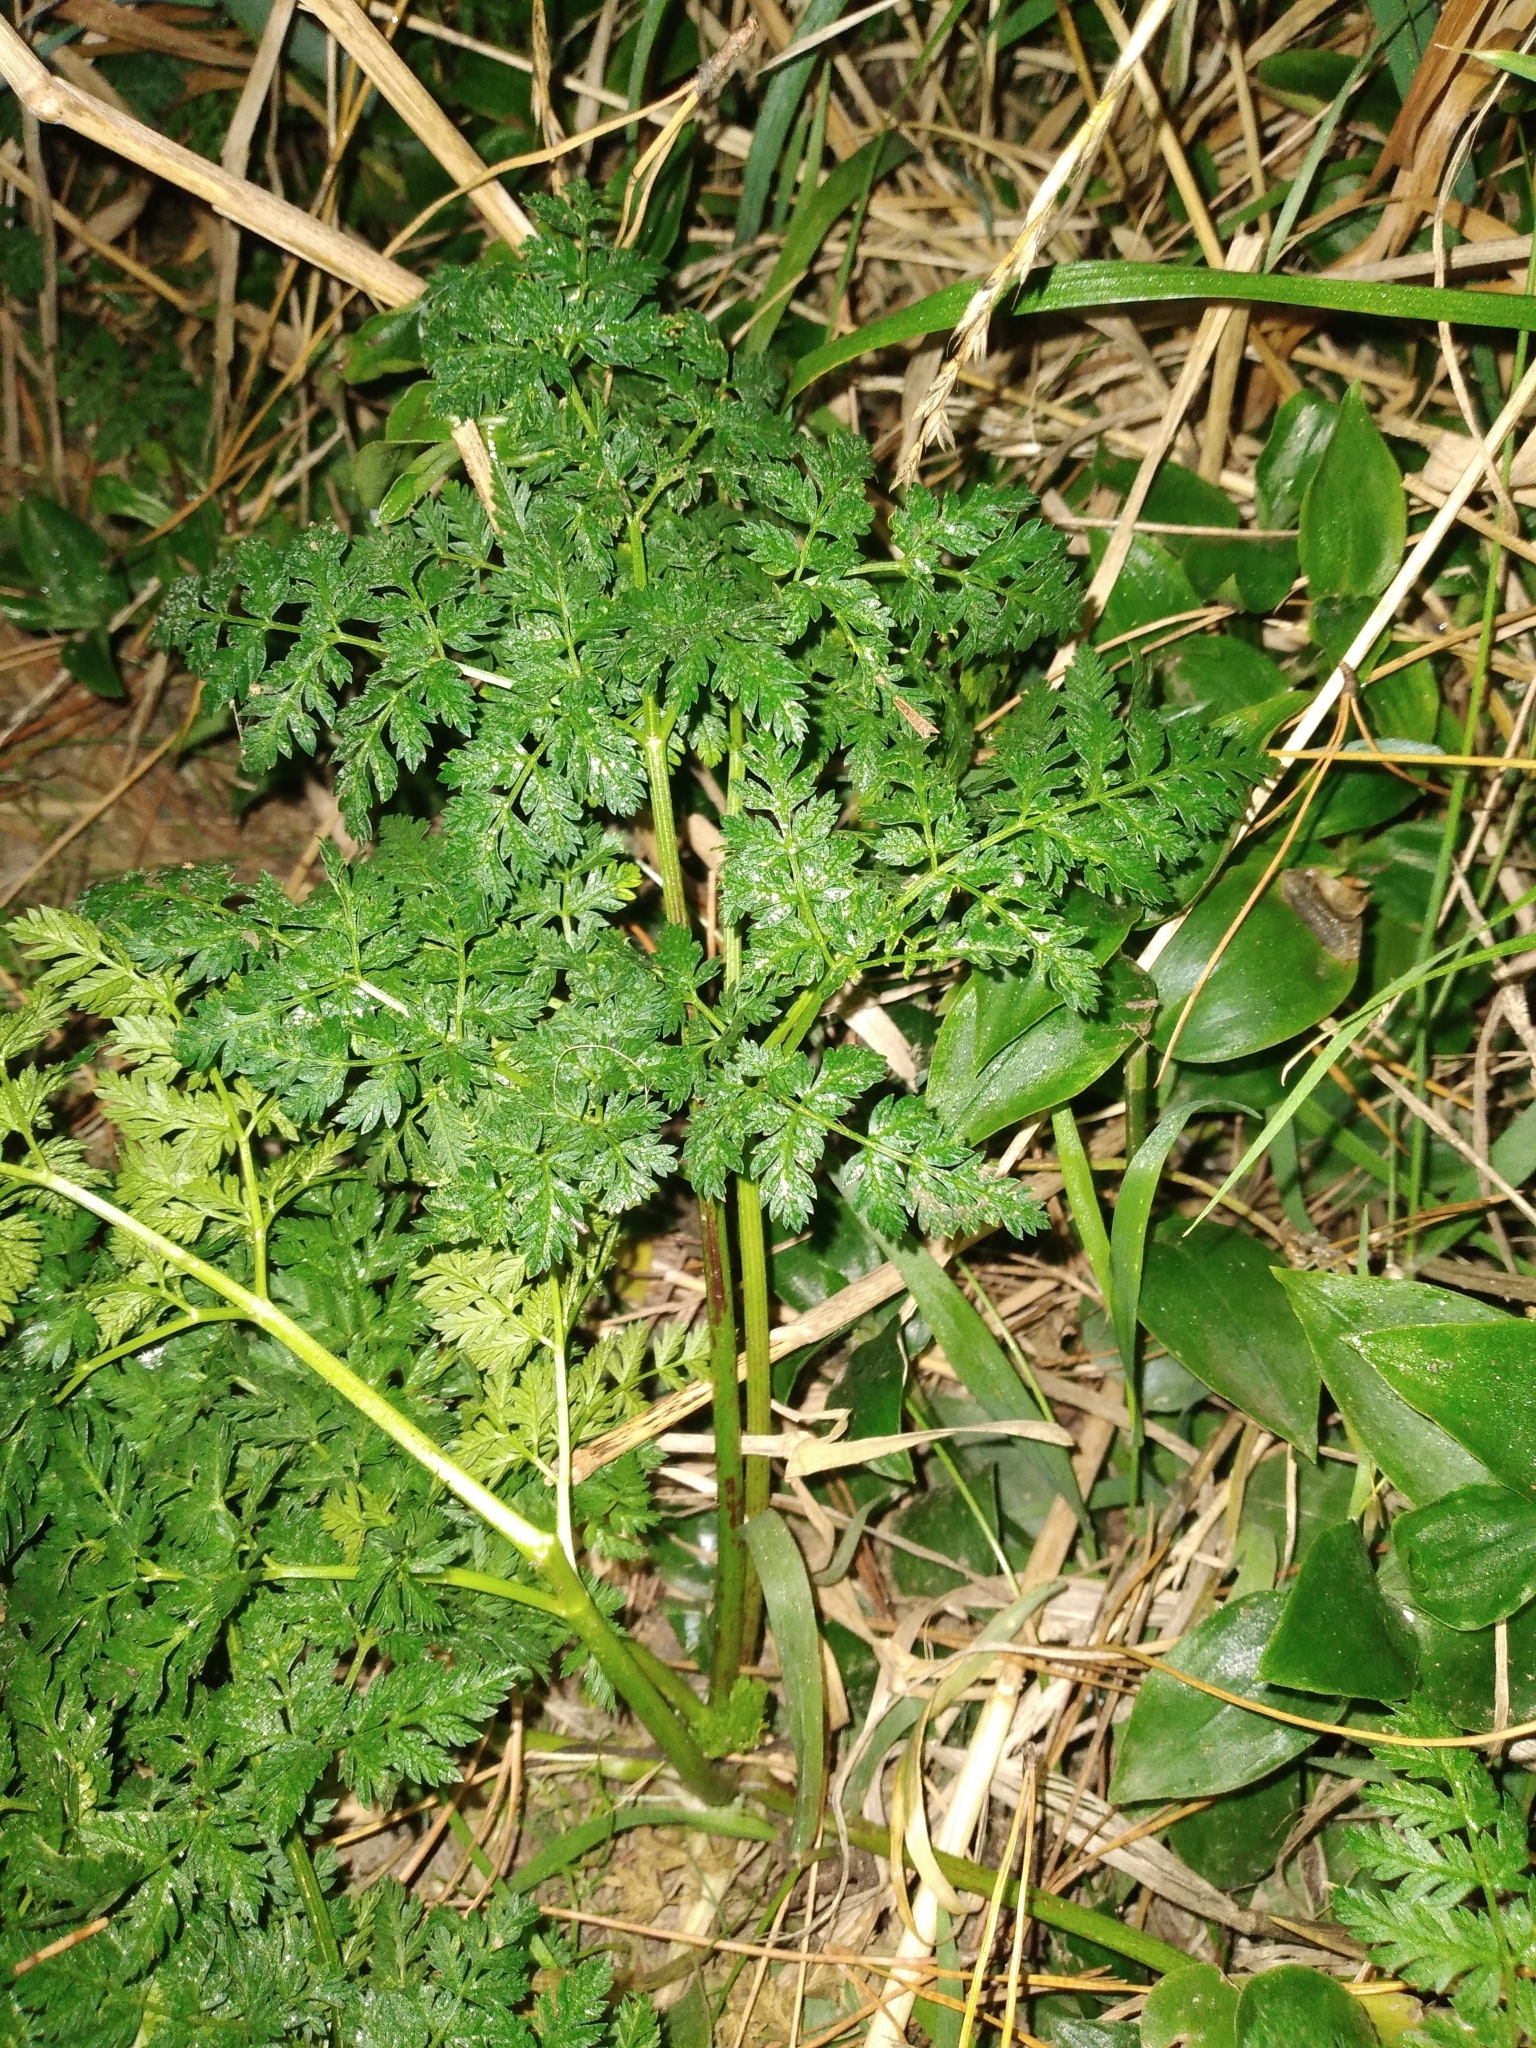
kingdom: Plantae
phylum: Tracheophyta
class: Magnoliopsida
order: Apiales
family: Apiaceae
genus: Conium
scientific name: Conium maculatum
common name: Hemlock
